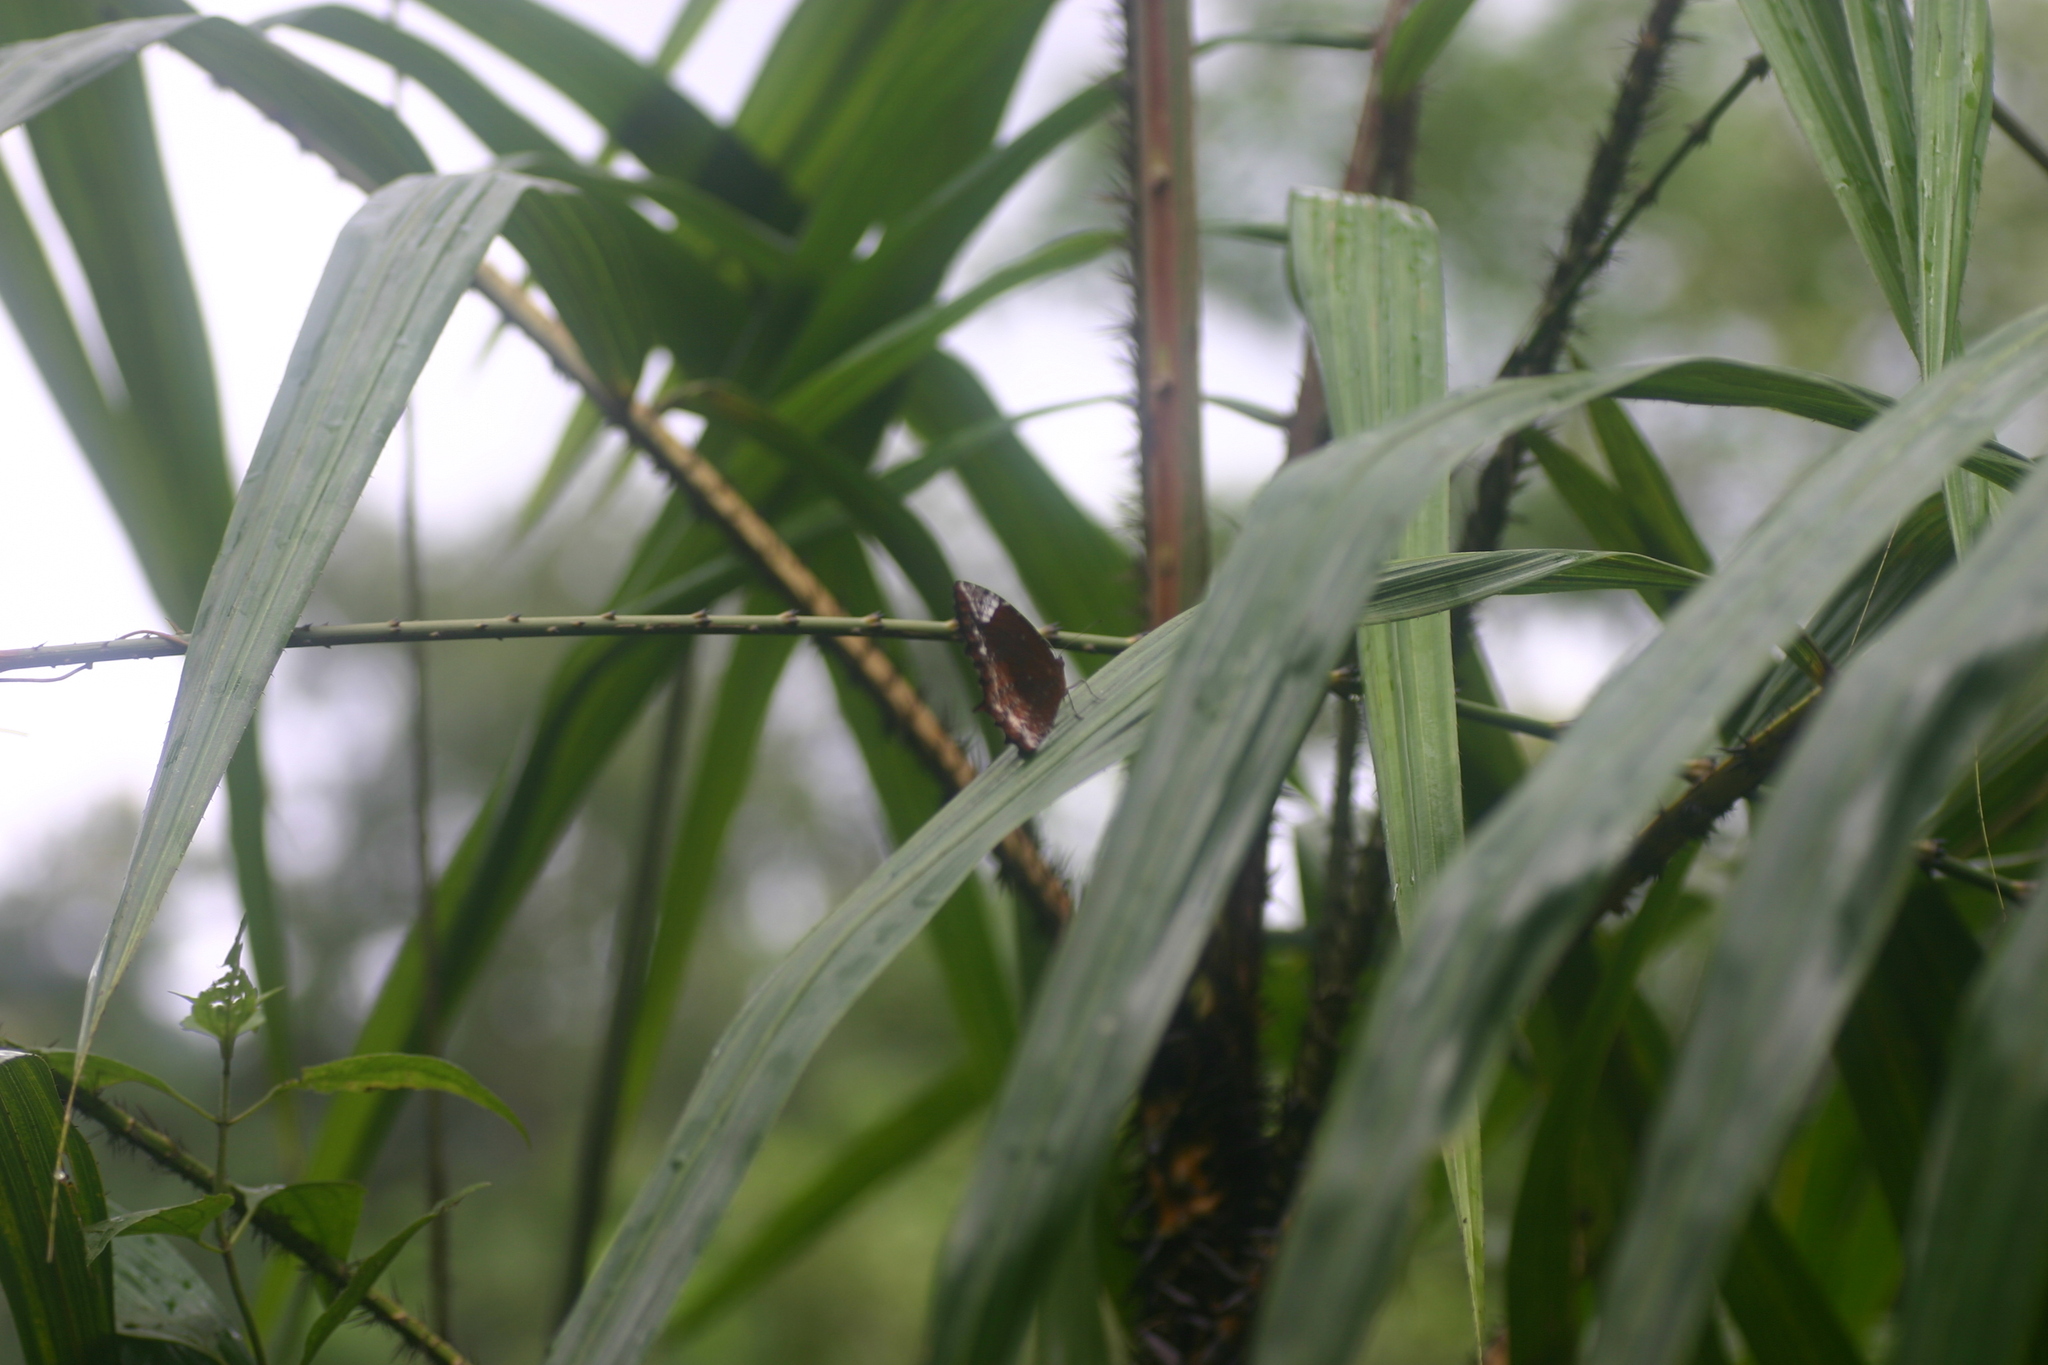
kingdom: Animalia
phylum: Arthropoda
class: Insecta
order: Lepidoptera
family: Nymphalidae
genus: Elymnias
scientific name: Elymnias caudata
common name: Tailed palmfly
